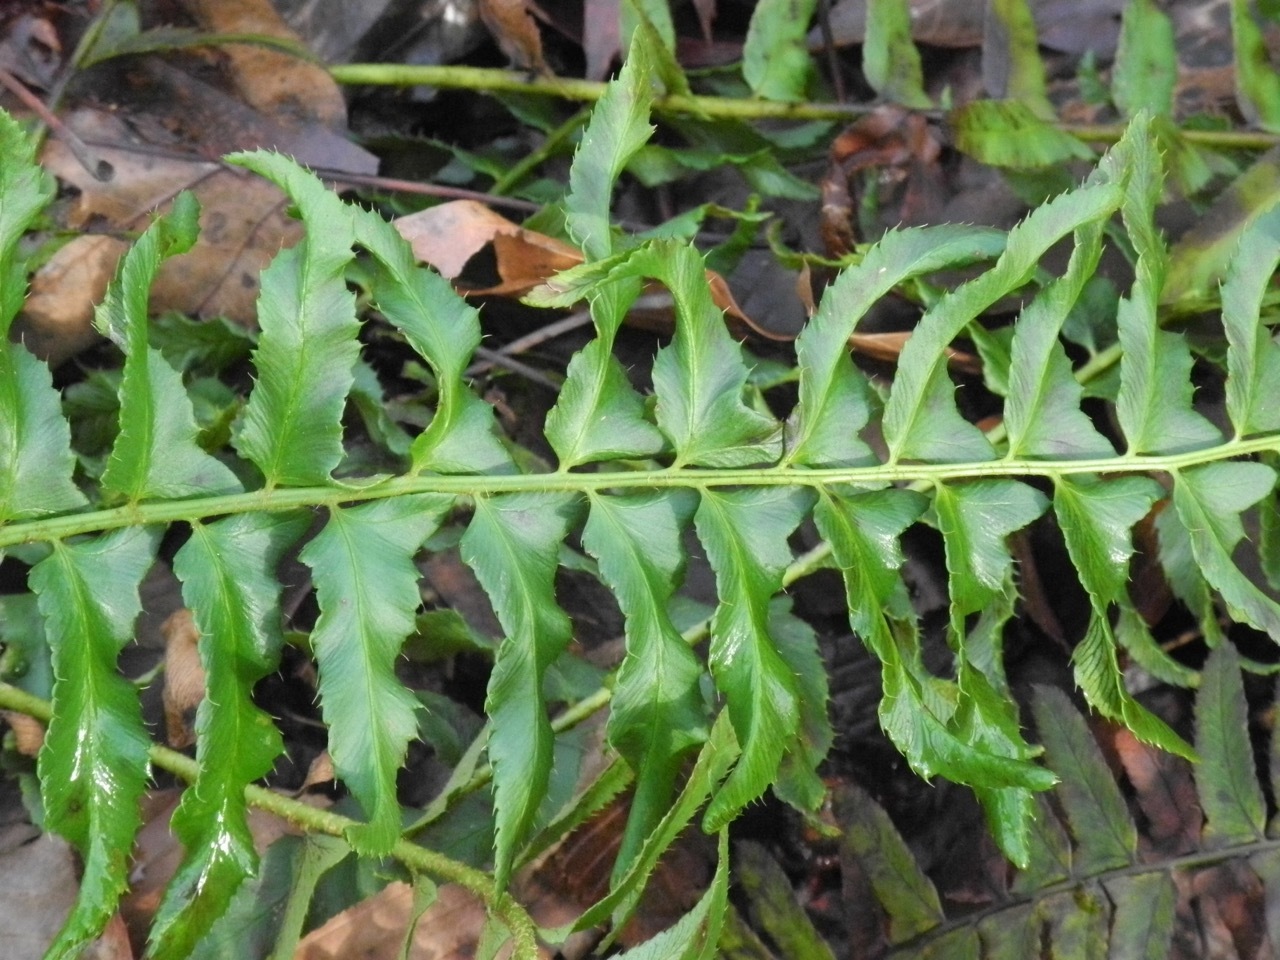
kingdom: Plantae
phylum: Tracheophyta
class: Polypodiopsida
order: Polypodiales
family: Dryopteridaceae
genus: Polystichum
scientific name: Polystichum acrostichoides
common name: Christmas fern
